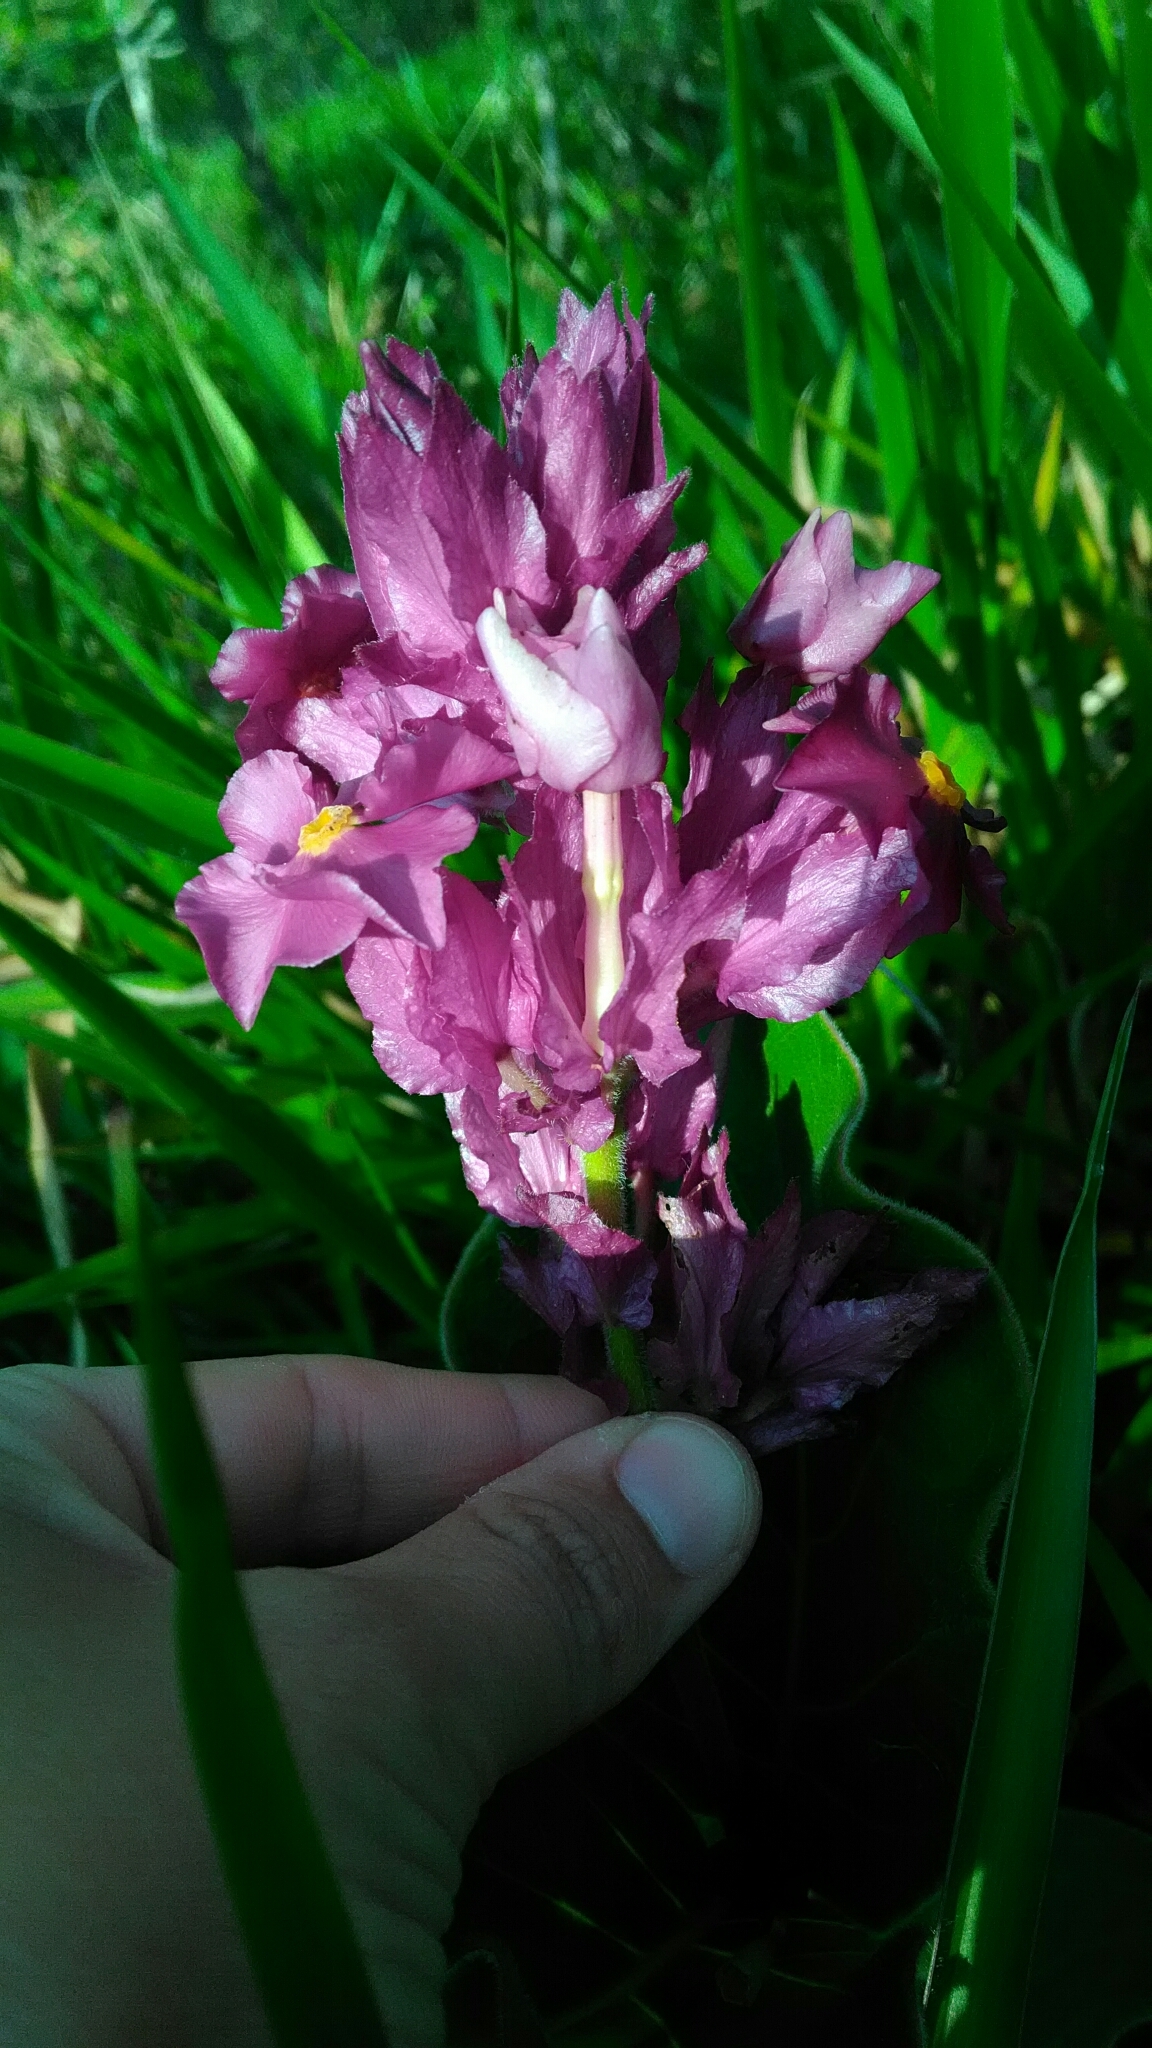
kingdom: Plantae
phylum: Tracheophyta
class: Magnoliopsida
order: Gentianales
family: Apocynaceae
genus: Prestonia
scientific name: Prestonia erecta
